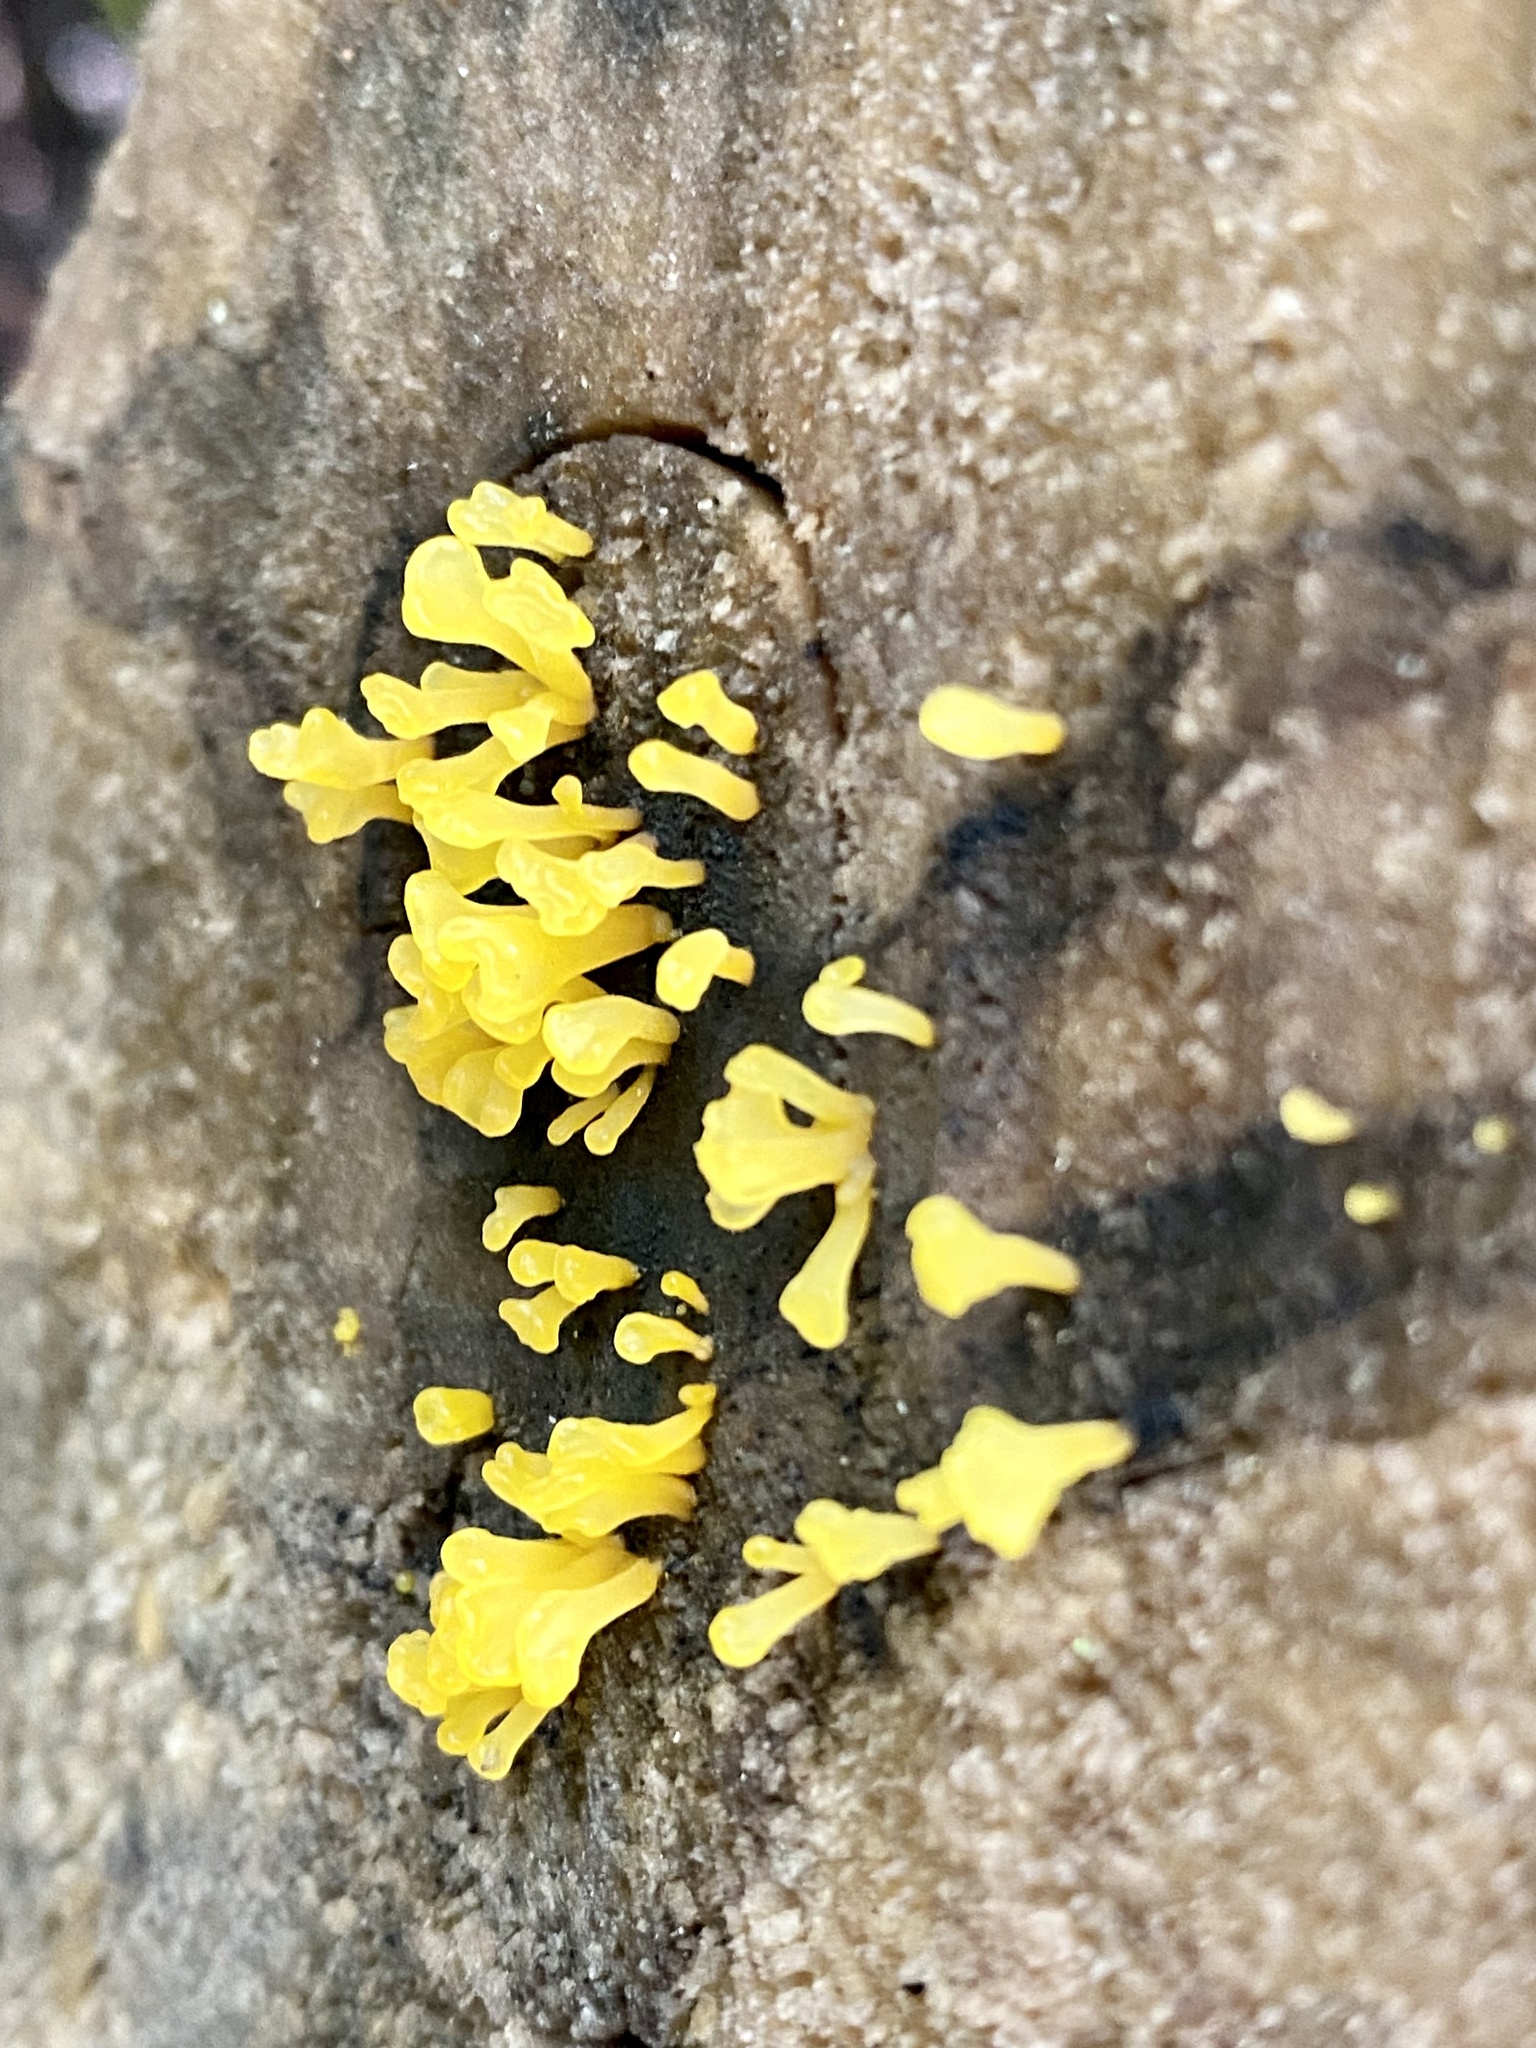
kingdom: Fungi
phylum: Basidiomycota
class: Dacrymycetes
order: Dacrymycetales
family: Dacrymycetaceae
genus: Dacrymyces
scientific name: Dacrymyces spathularius
